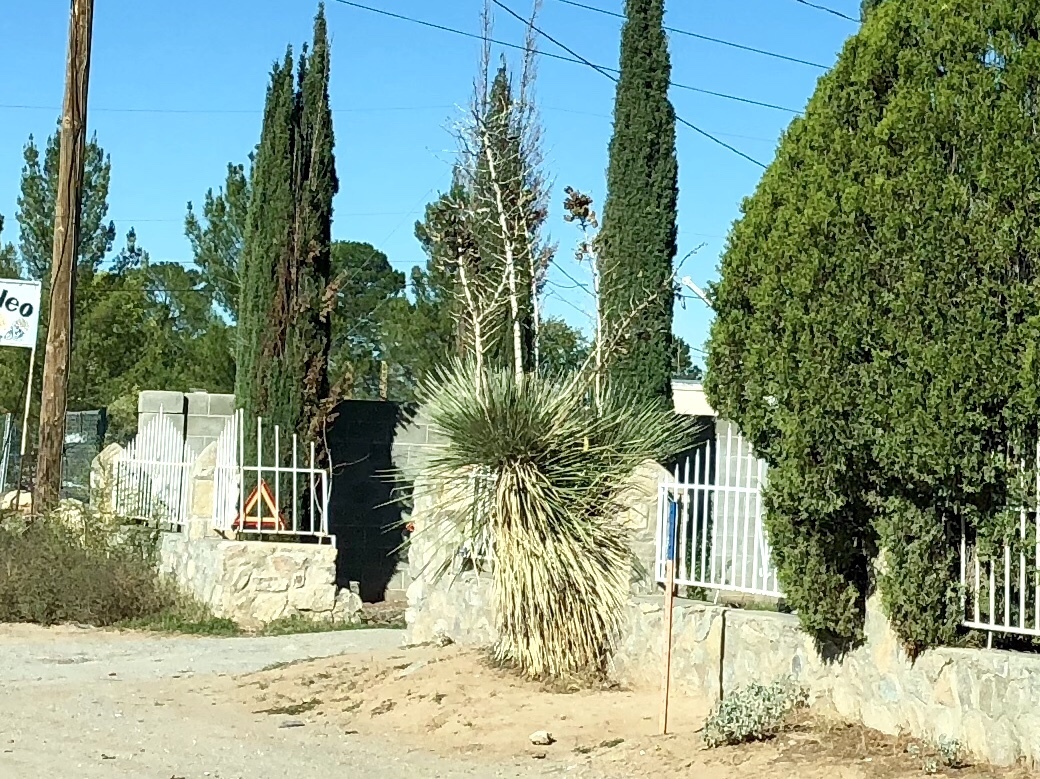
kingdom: Plantae
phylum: Tracheophyta
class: Liliopsida
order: Asparagales
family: Asparagaceae
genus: Yucca
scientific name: Yucca elata
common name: Palmella
